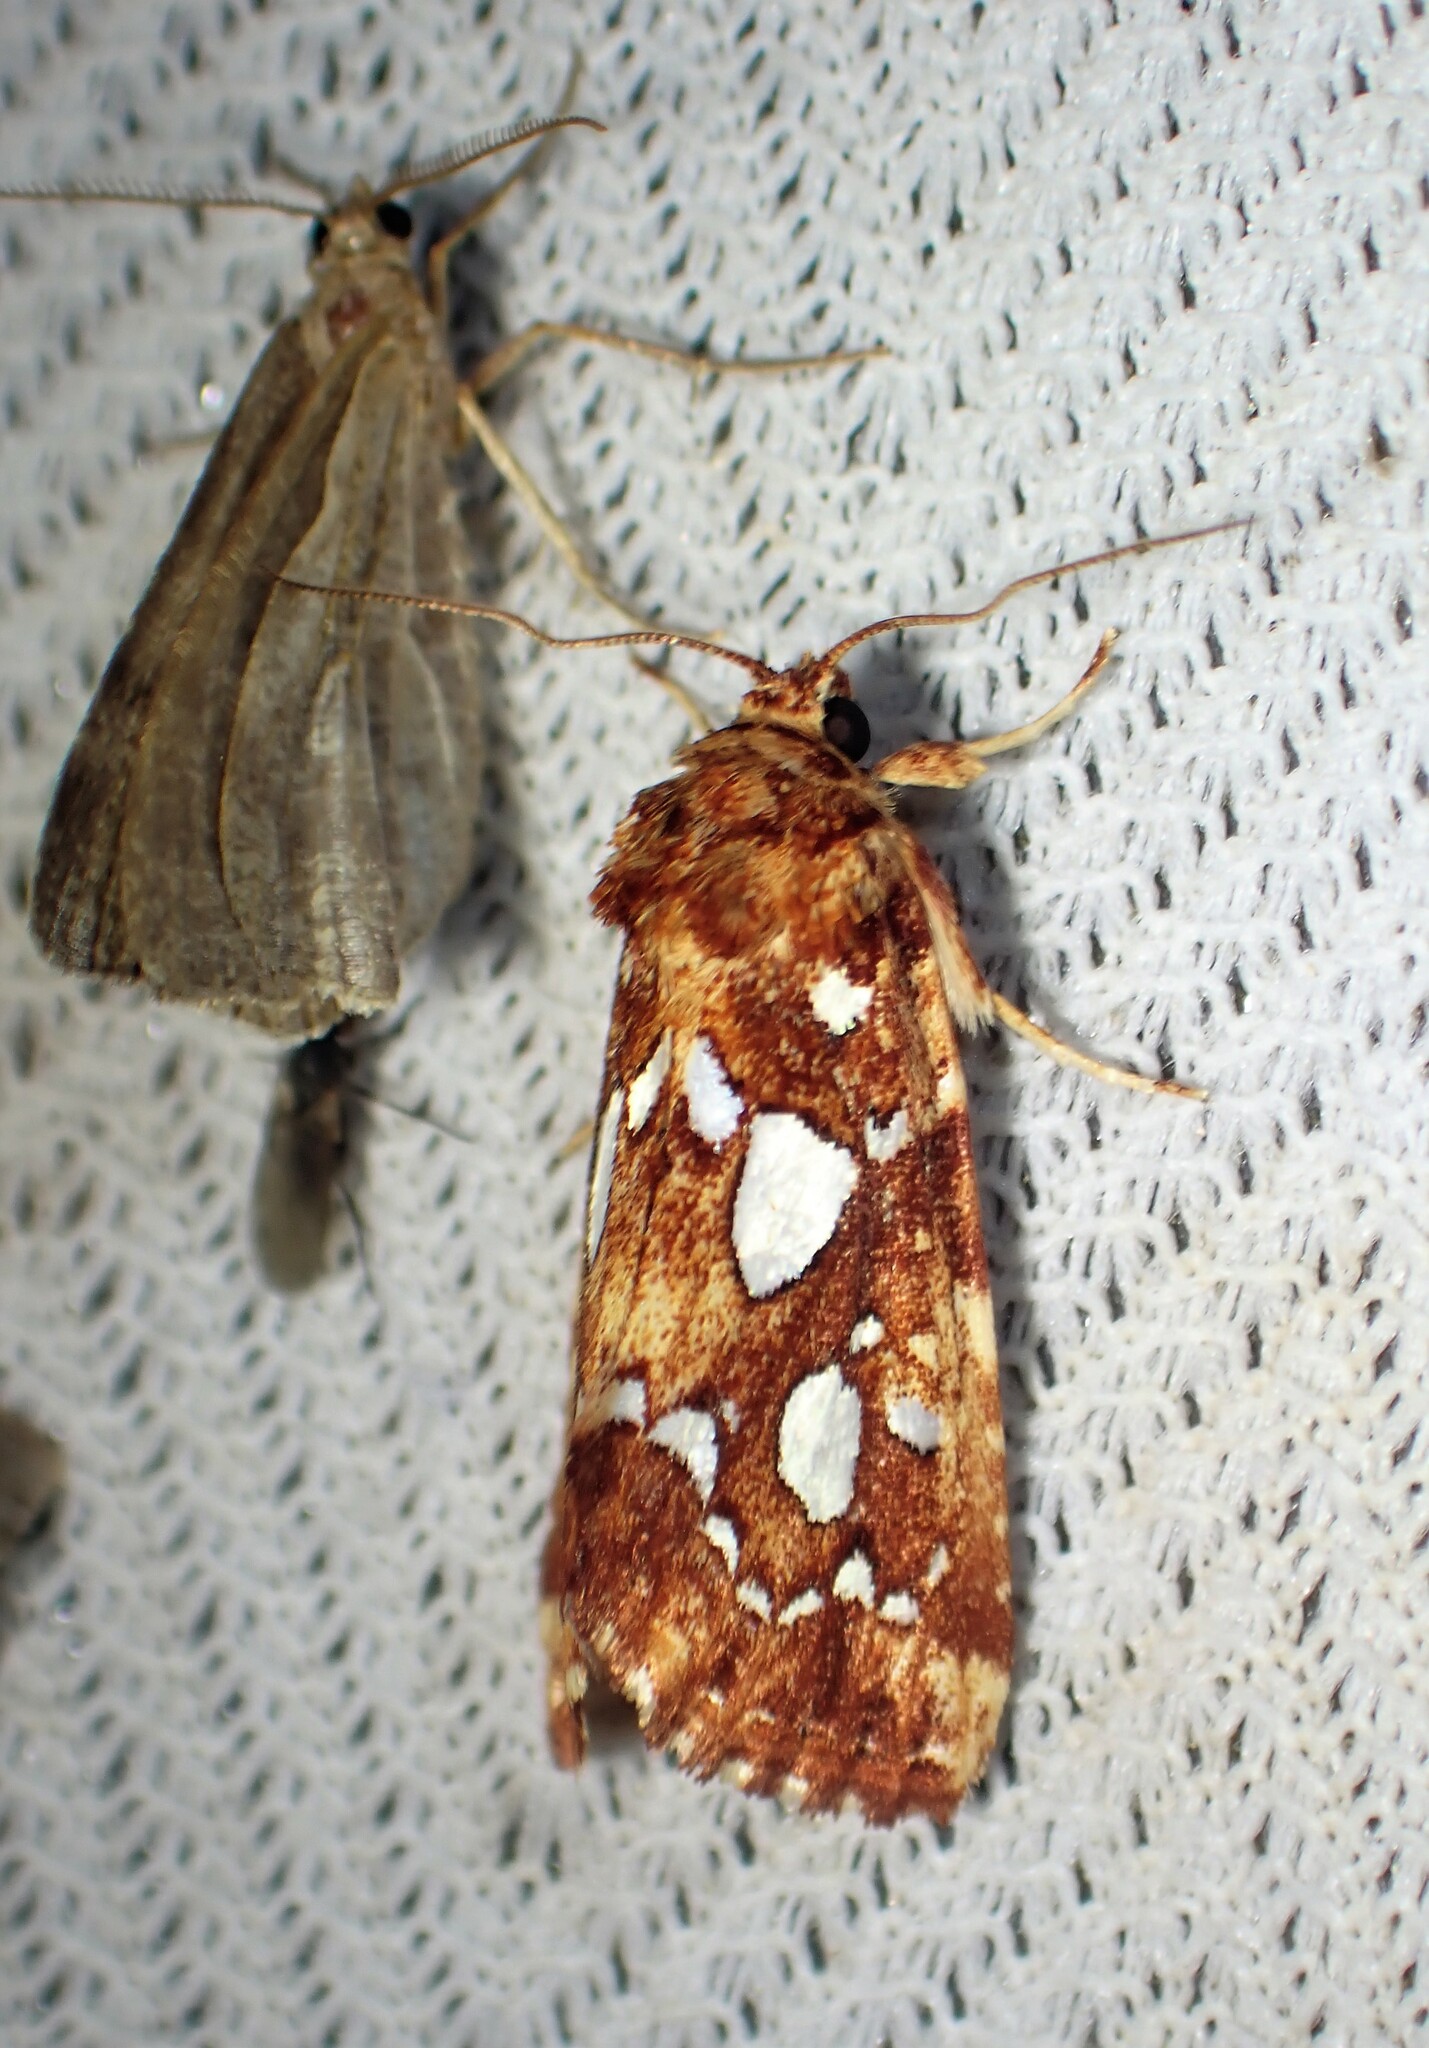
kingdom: Animalia
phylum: Arthropoda
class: Insecta
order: Lepidoptera
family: Noctuidae
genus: Callopistria
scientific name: Callopistria cordata
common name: Silver-spotted fern moth
